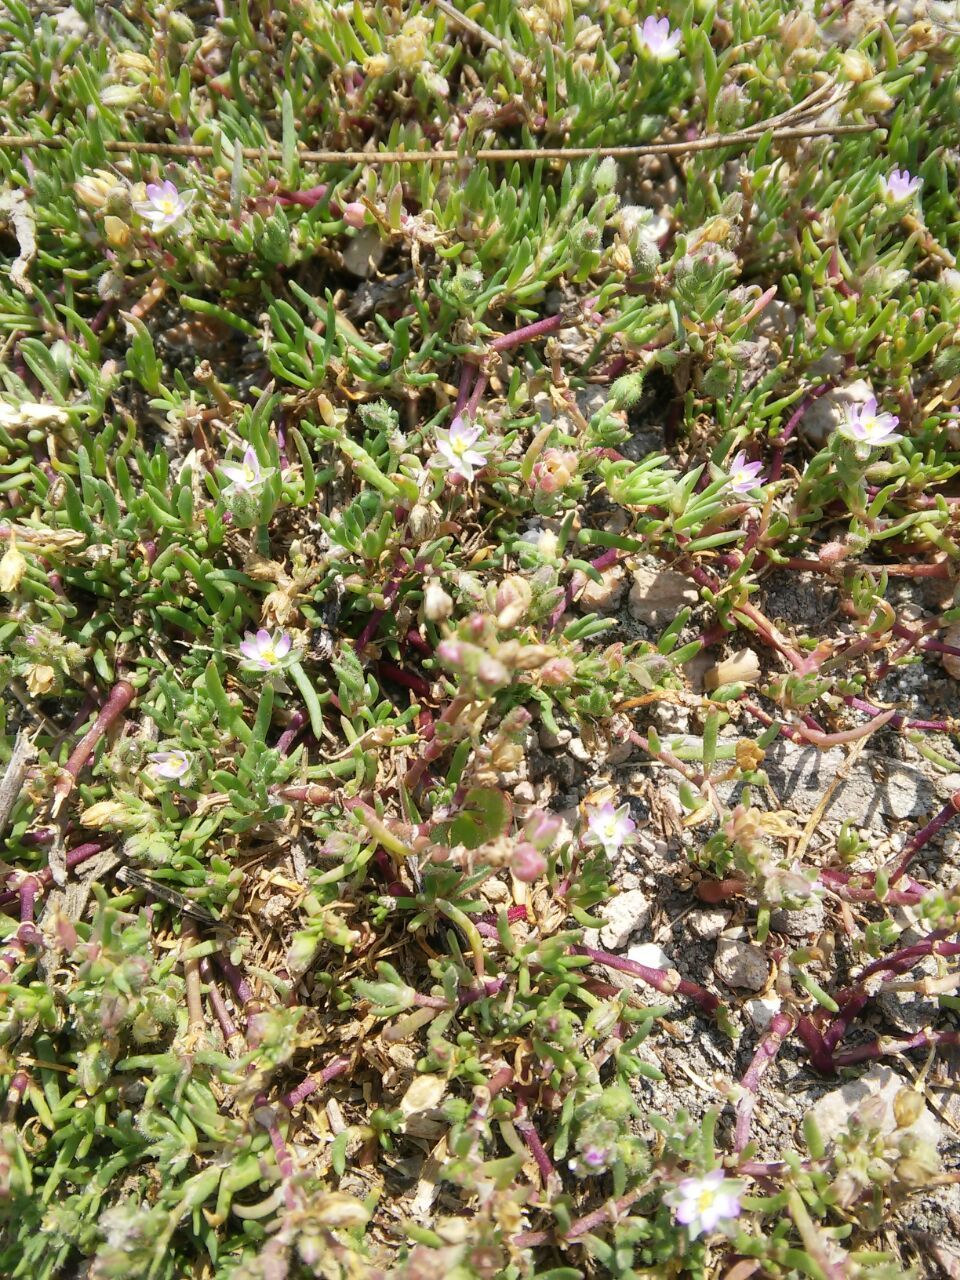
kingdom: Plantae
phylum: Tracheophyta
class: Magnoliopsida
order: Caryophyllales
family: Caryophyllaceae
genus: Spergularia
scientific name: Spergularia media
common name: Greater sea-spurrey
